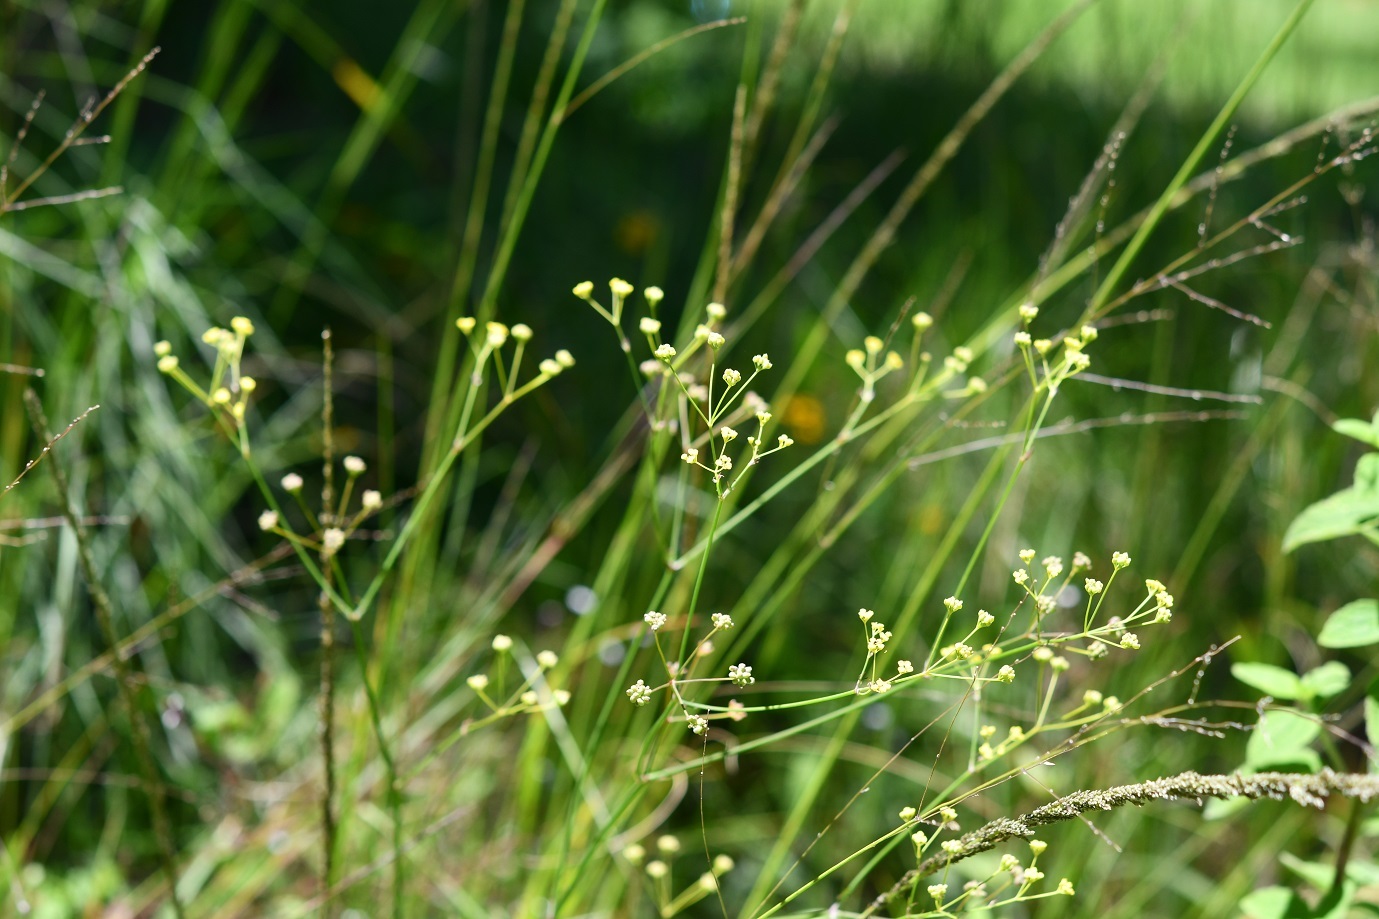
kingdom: Plantae
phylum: Tracheophyta
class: Magnoliopsida
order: Apiales
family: Apiaceae
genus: Donnellsmithia
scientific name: Donnellsmithia juncea
